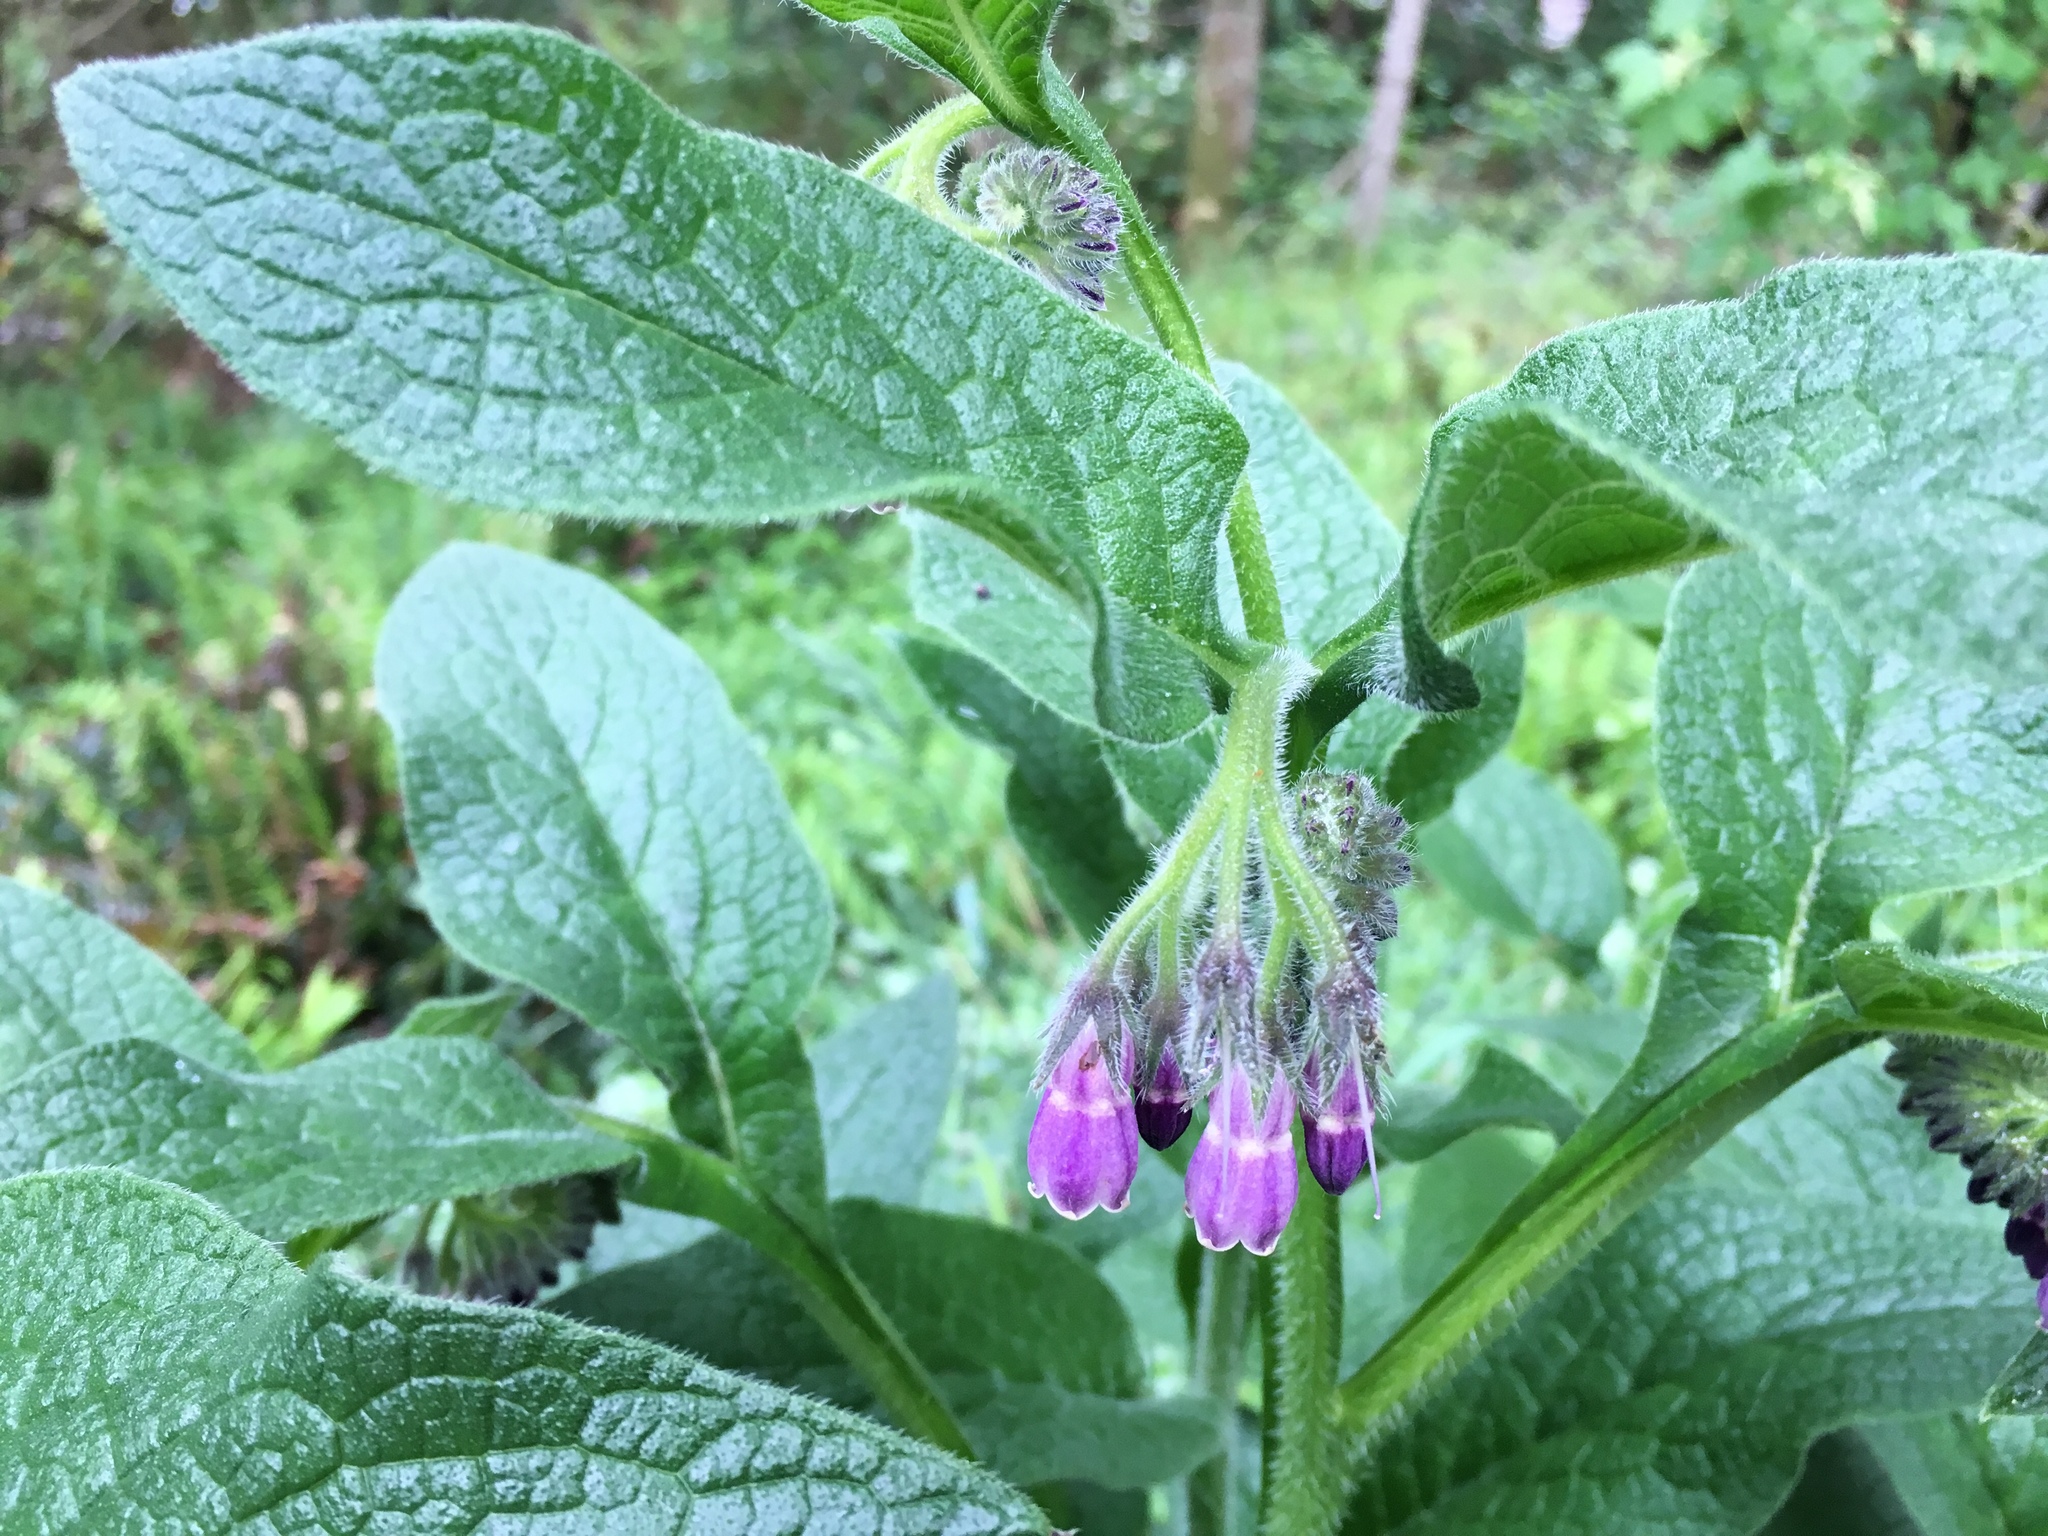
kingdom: Plantae
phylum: Tracheophyta
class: Magnoliopsida
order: Boraginales
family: Boraginaceae
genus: Symphytum
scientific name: Symphytum officinale
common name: Common comfrey
